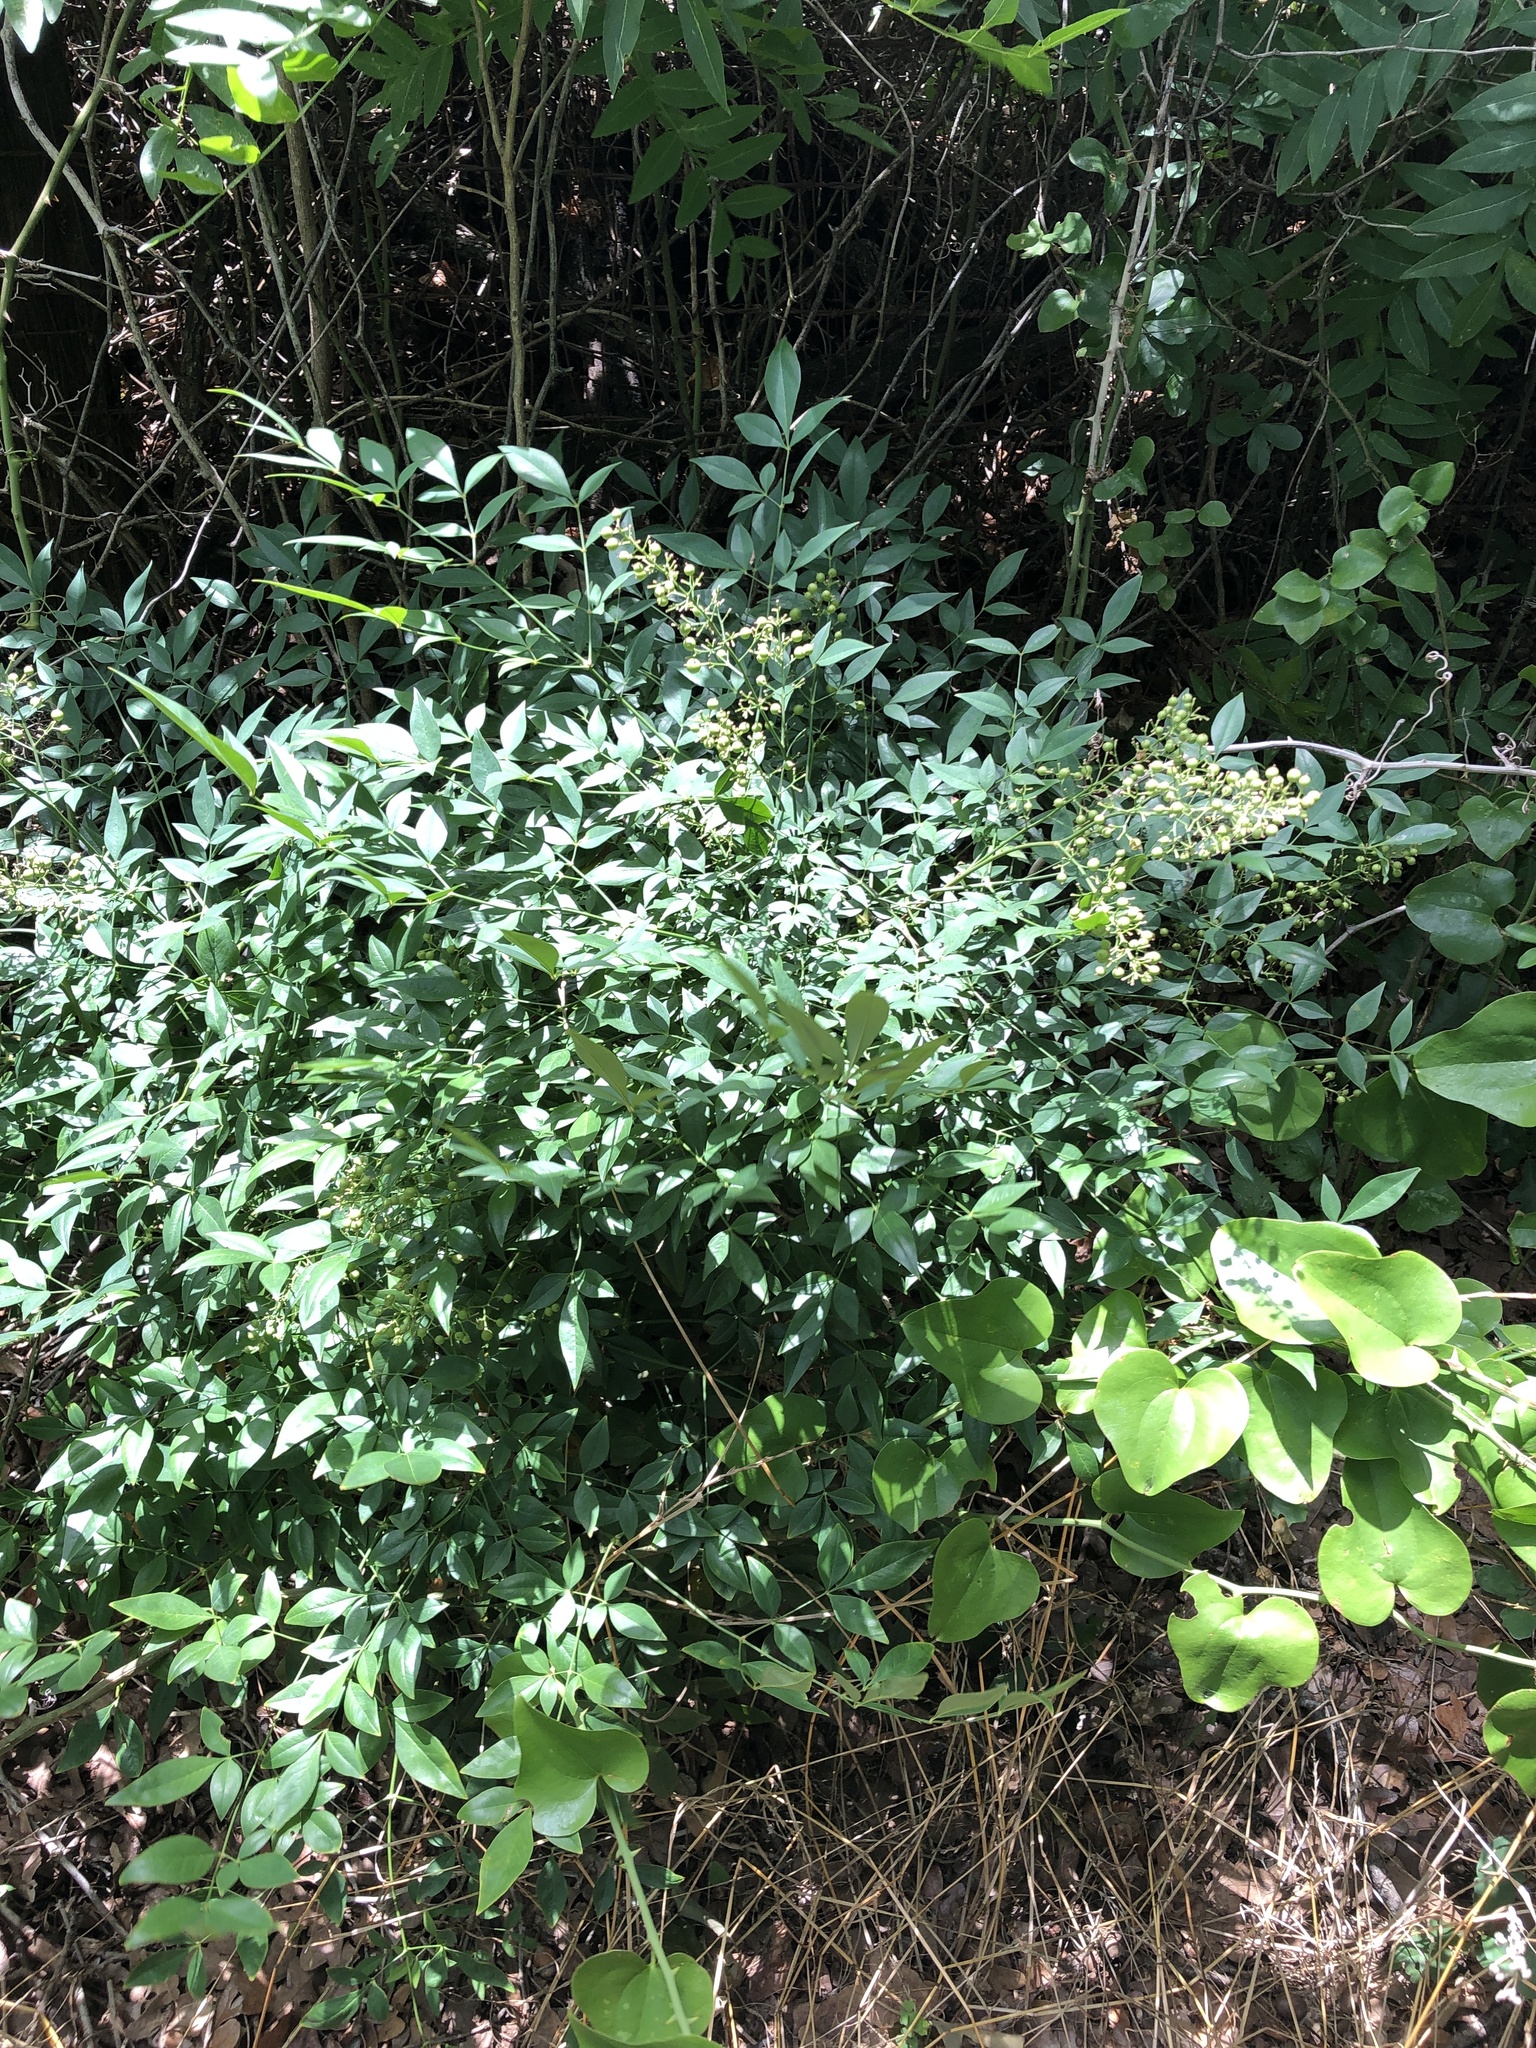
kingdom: Plantae
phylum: Tracheophyta
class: Magnoliopsida
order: Ranunculales
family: Berberidaceae
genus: Nandina
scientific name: Nandina domestica
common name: Sacred bamboo
